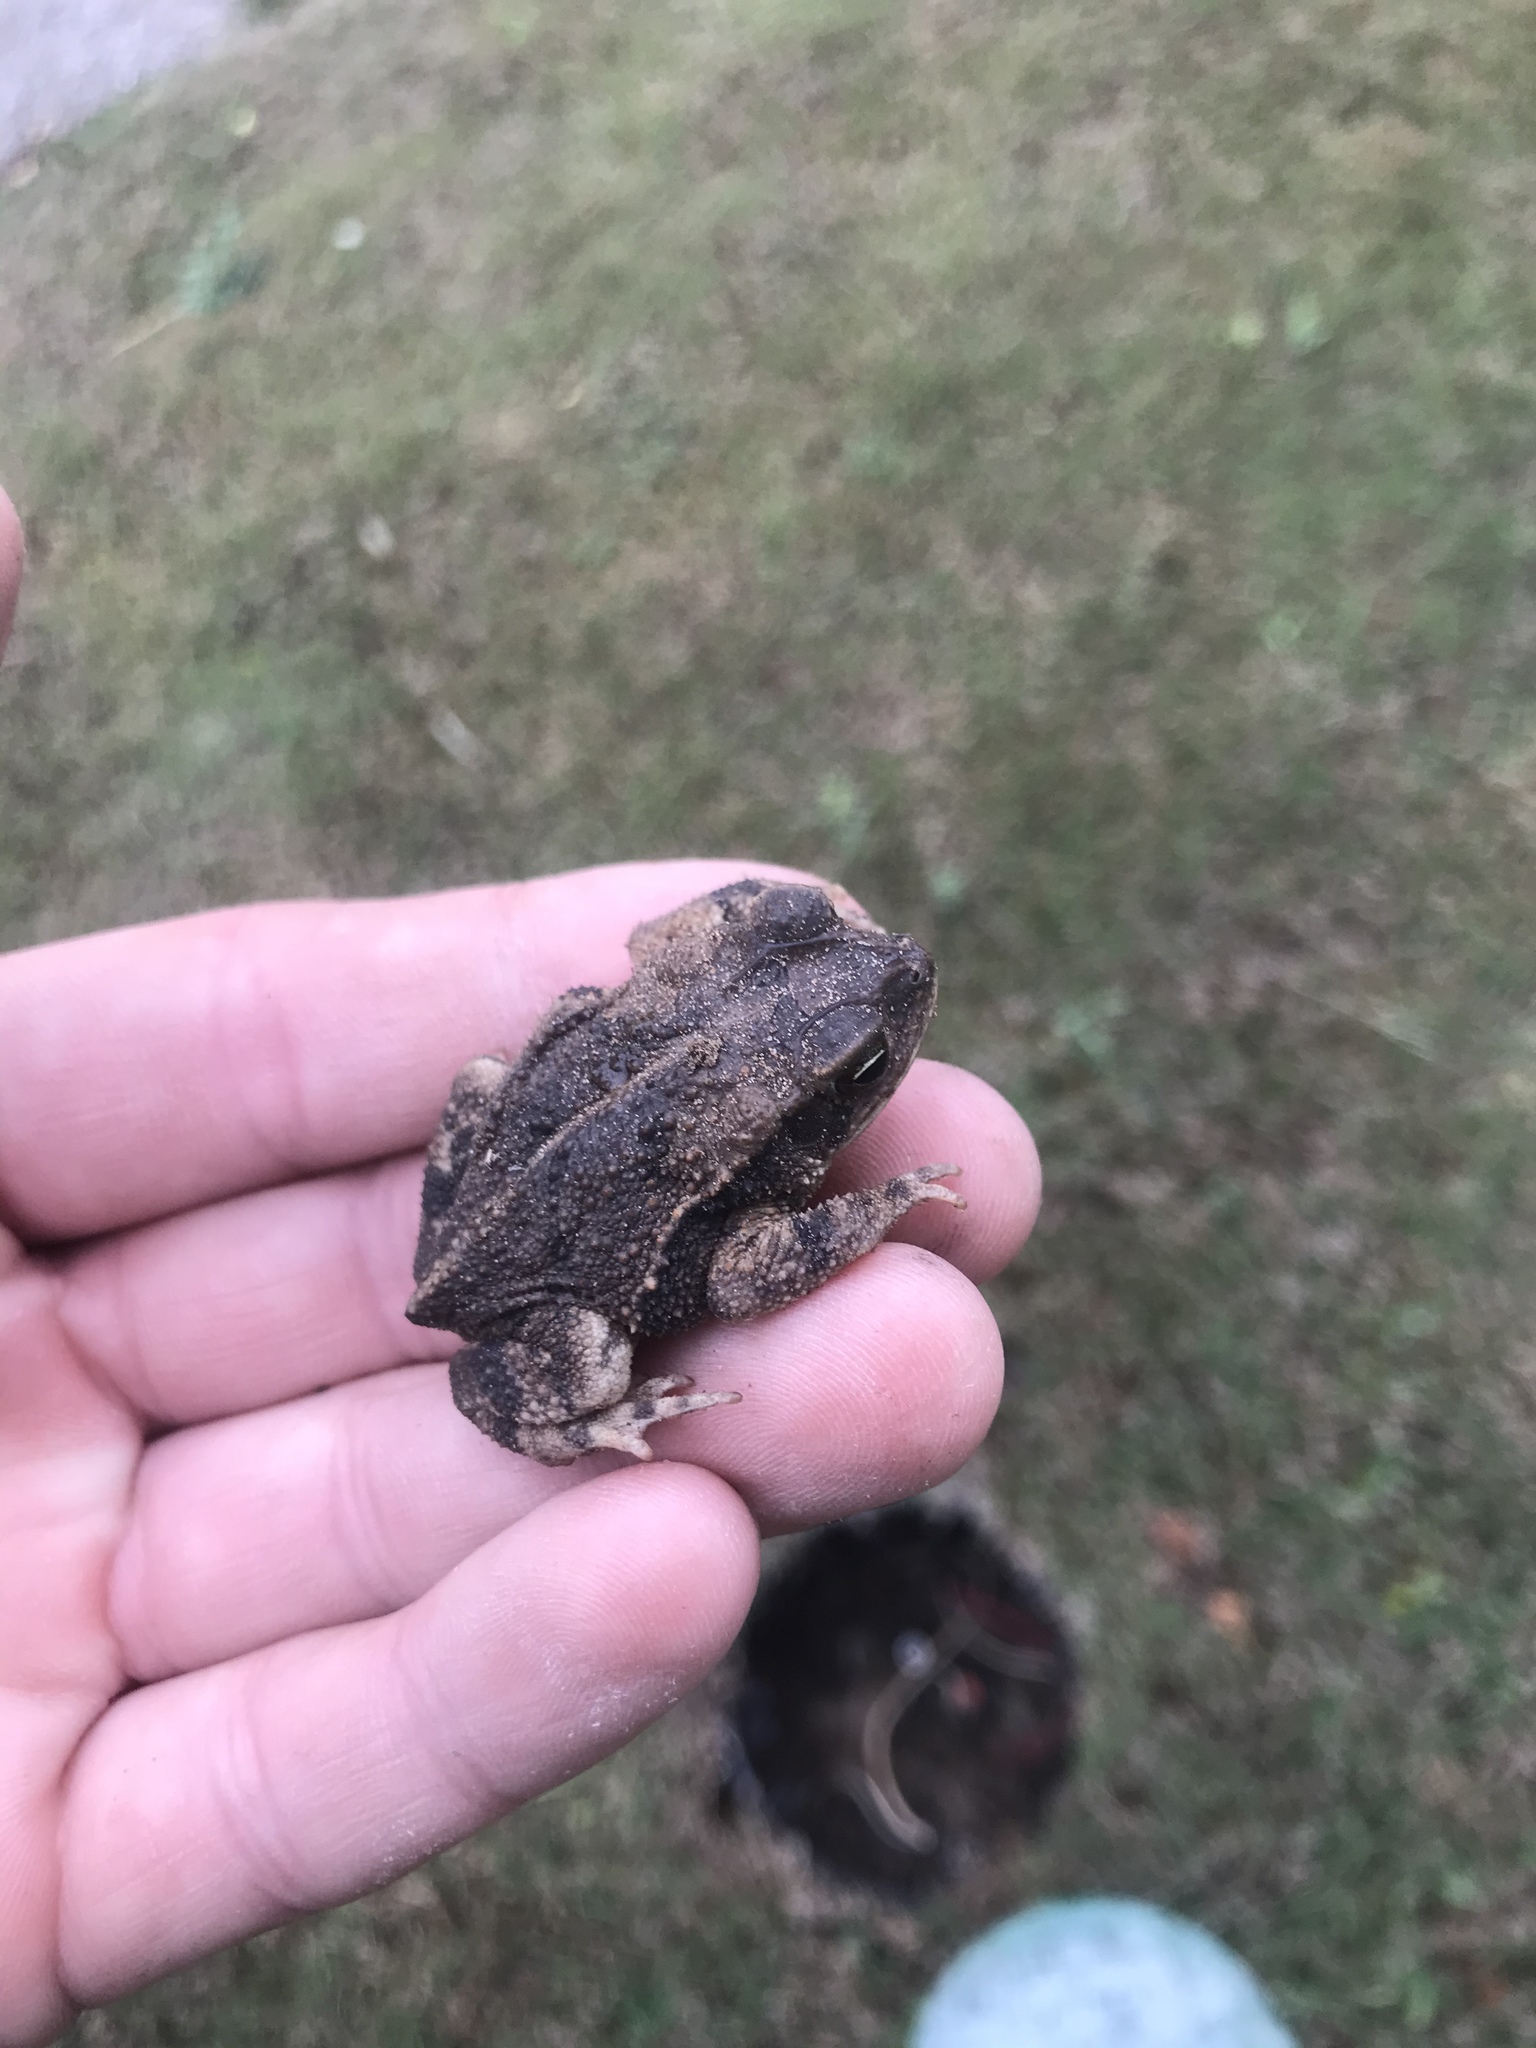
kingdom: Animalia
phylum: Chordata
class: Amphibia
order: Anura
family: Bufonidae
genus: Incilius
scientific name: Incilius nebulifer
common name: Gulf coast toad
